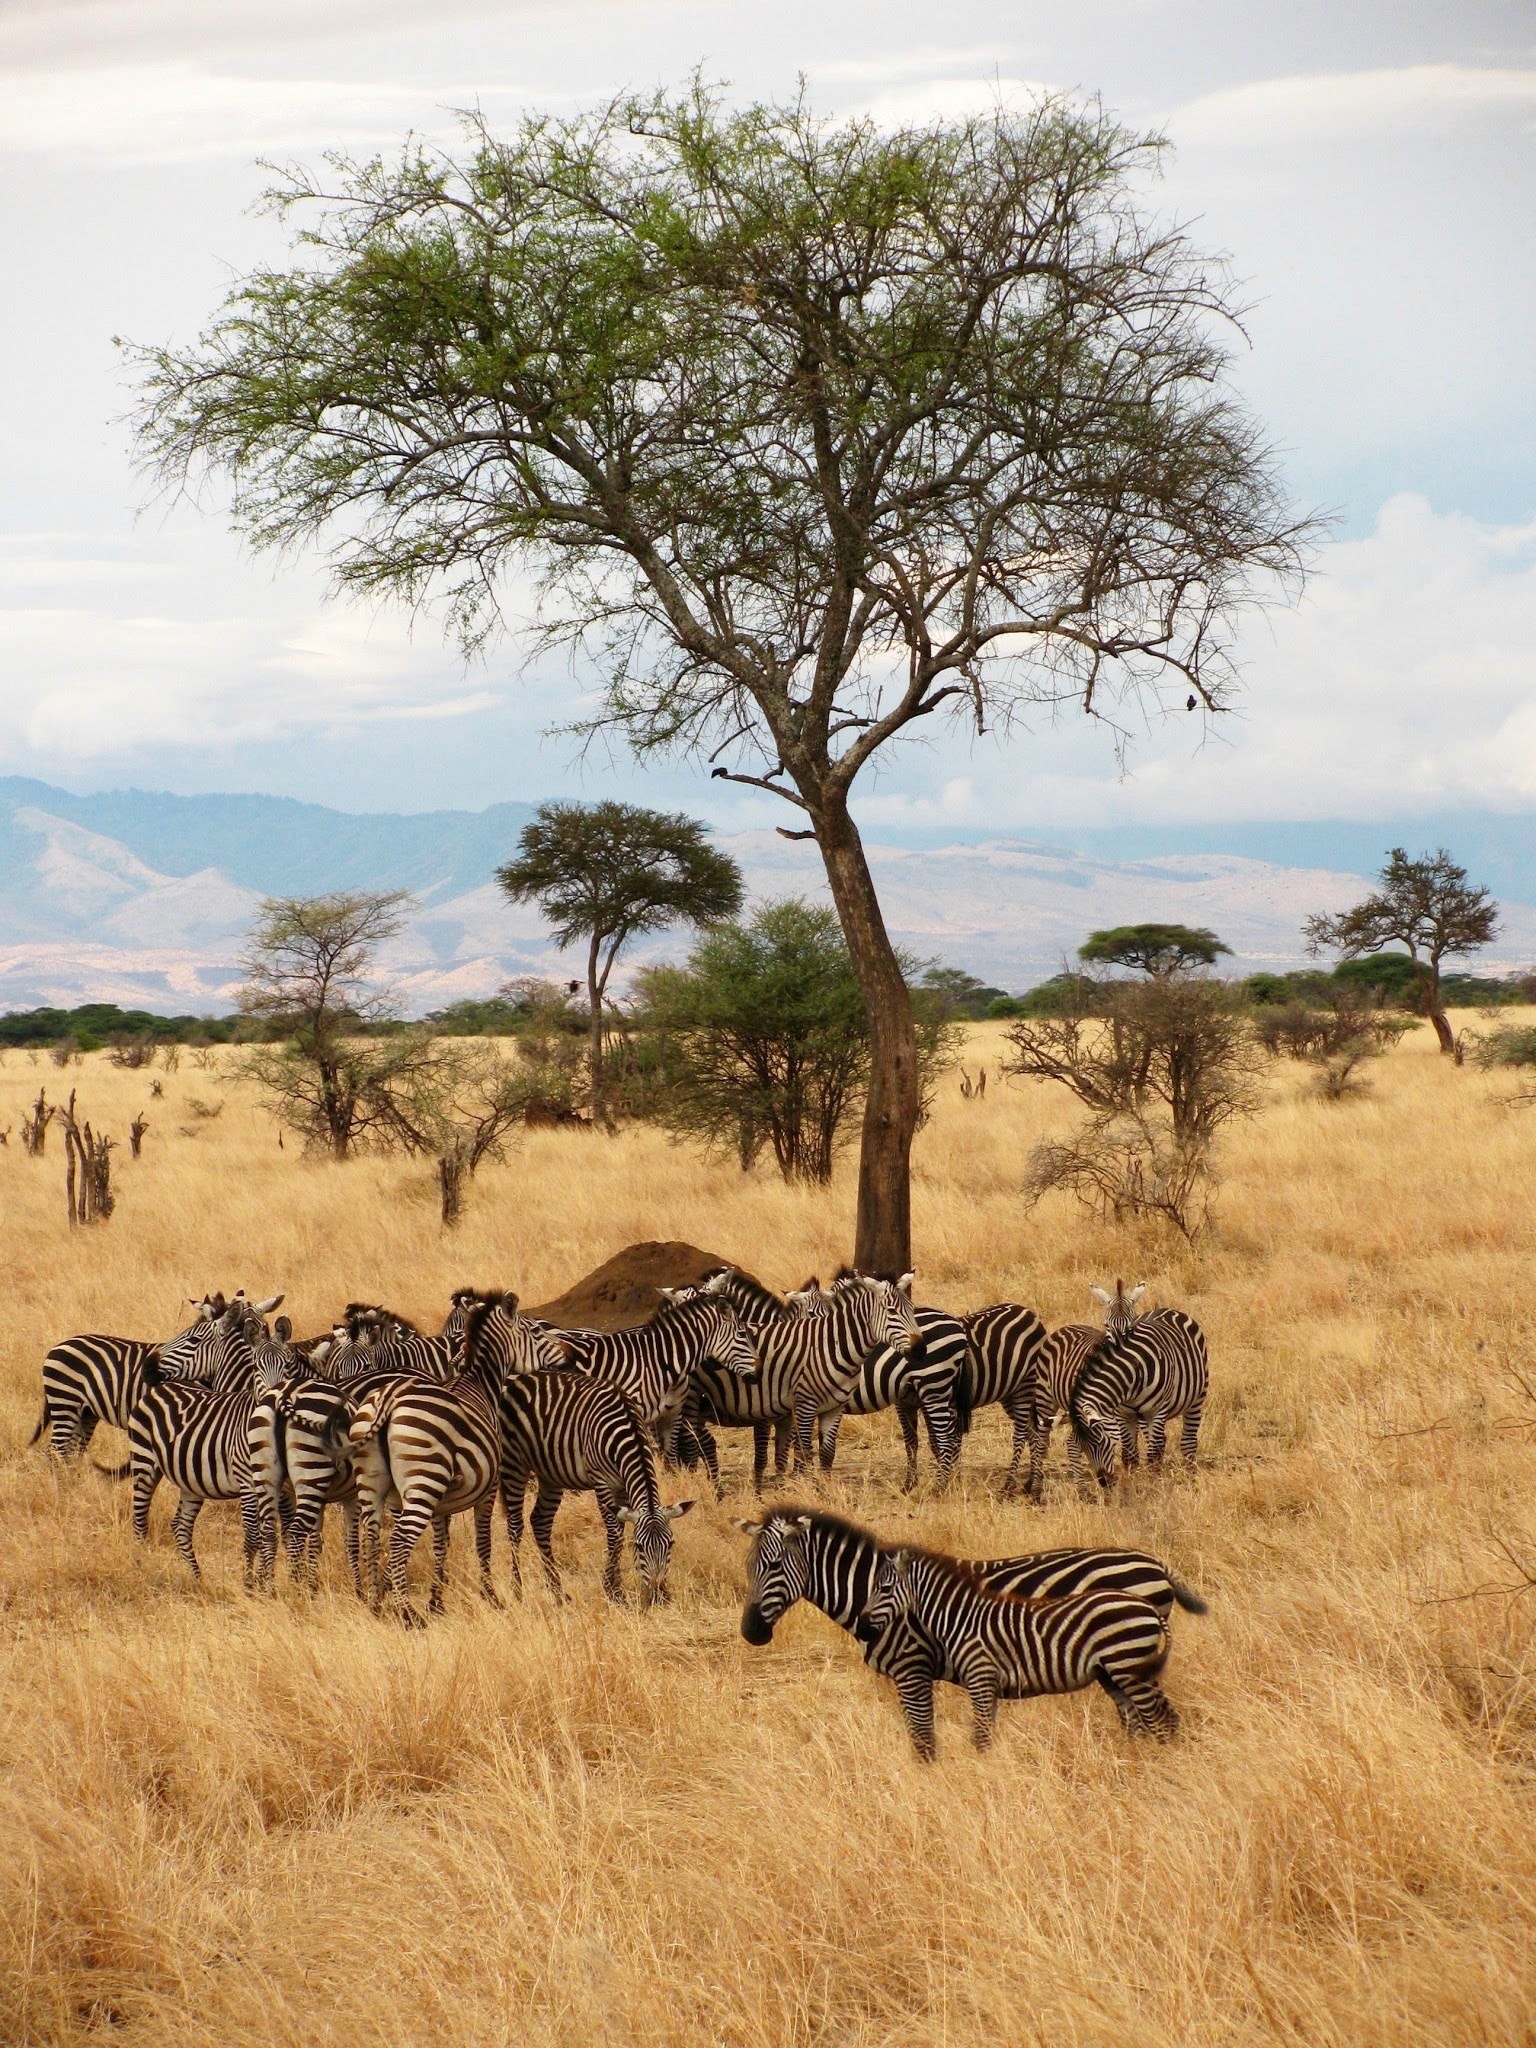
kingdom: Animalia
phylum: Chordata
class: Mammalia
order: Perissodactyla
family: Equidae
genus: Equus
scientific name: Equus quagga
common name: Plains zebra
